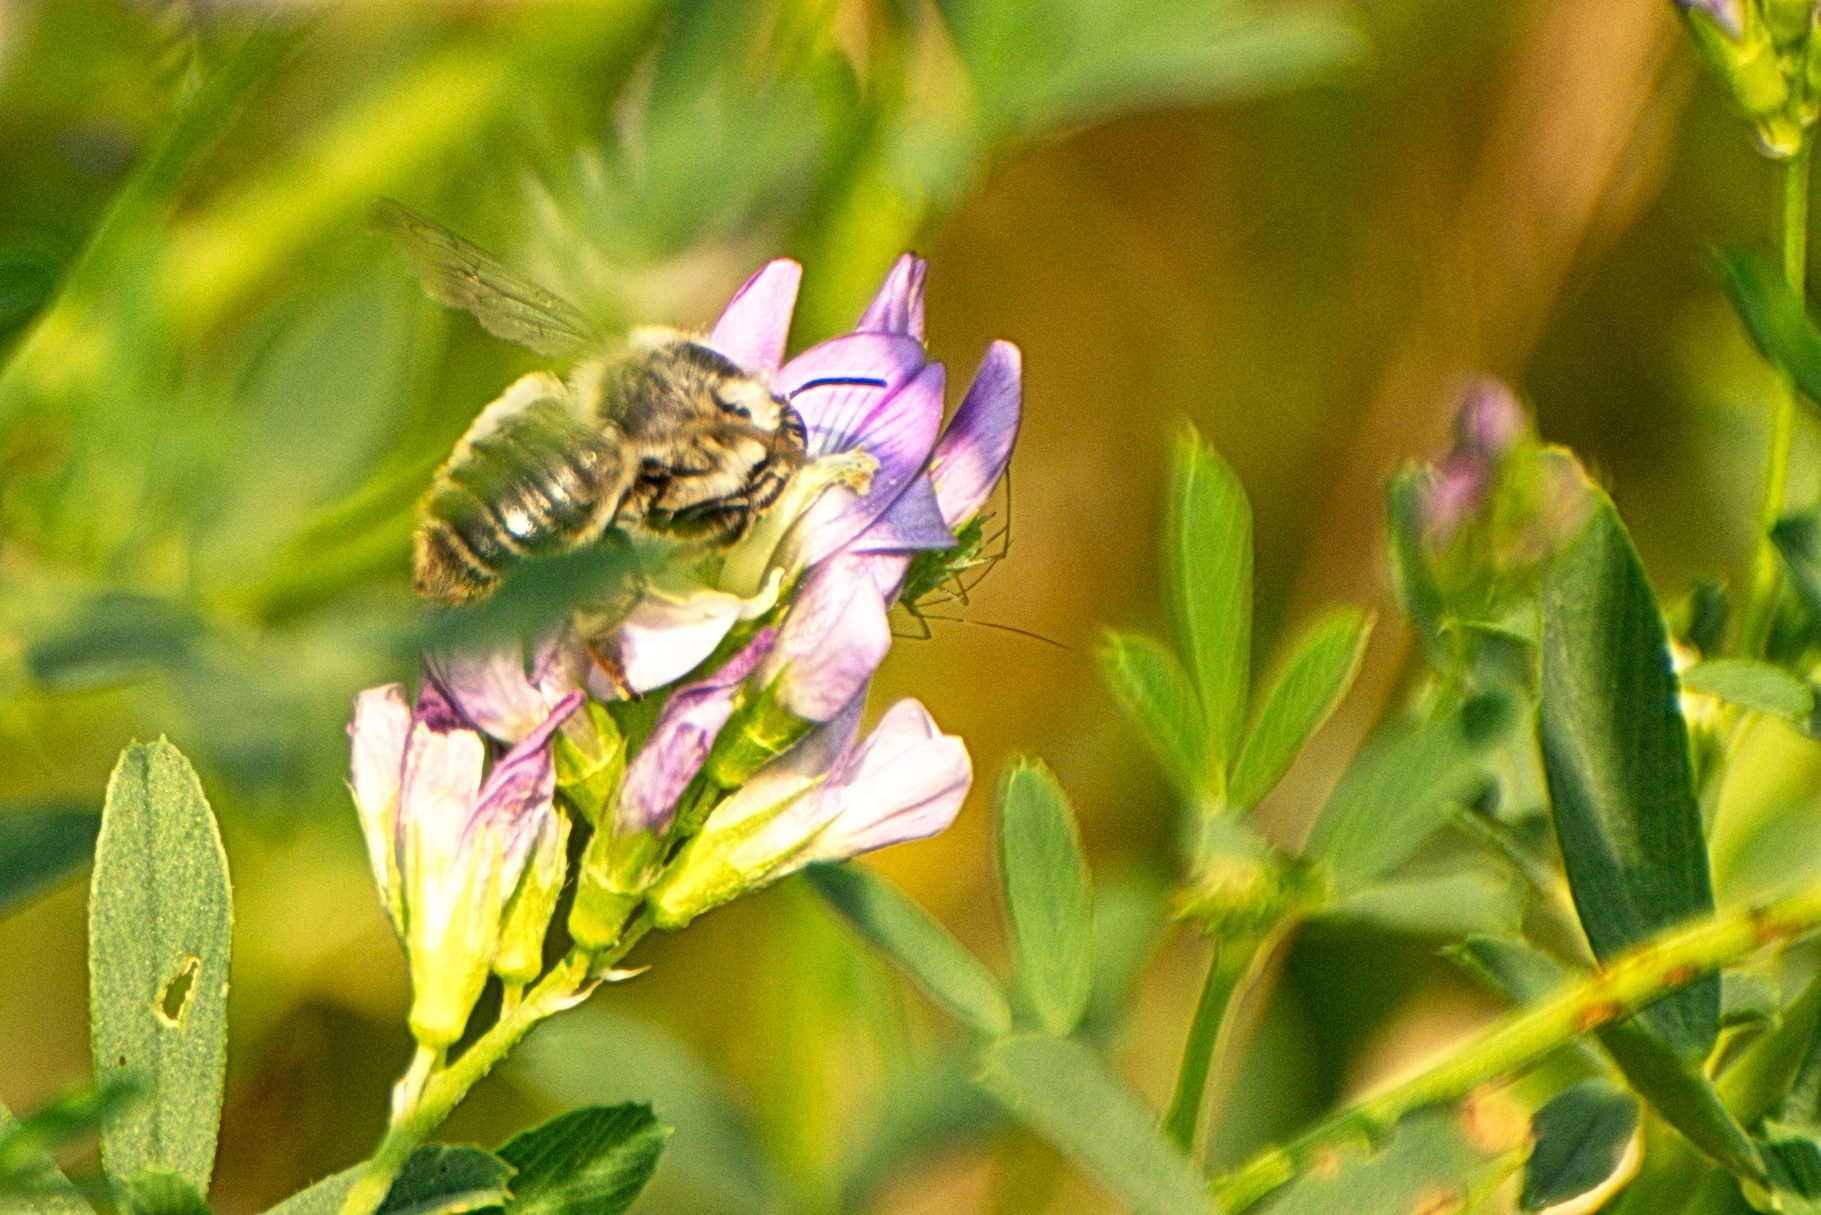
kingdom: Animalia
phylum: Arthropoda
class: Insecta
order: Hymenoptera
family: Apidae
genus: Apis
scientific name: Apis mellifera
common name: Honey bee
